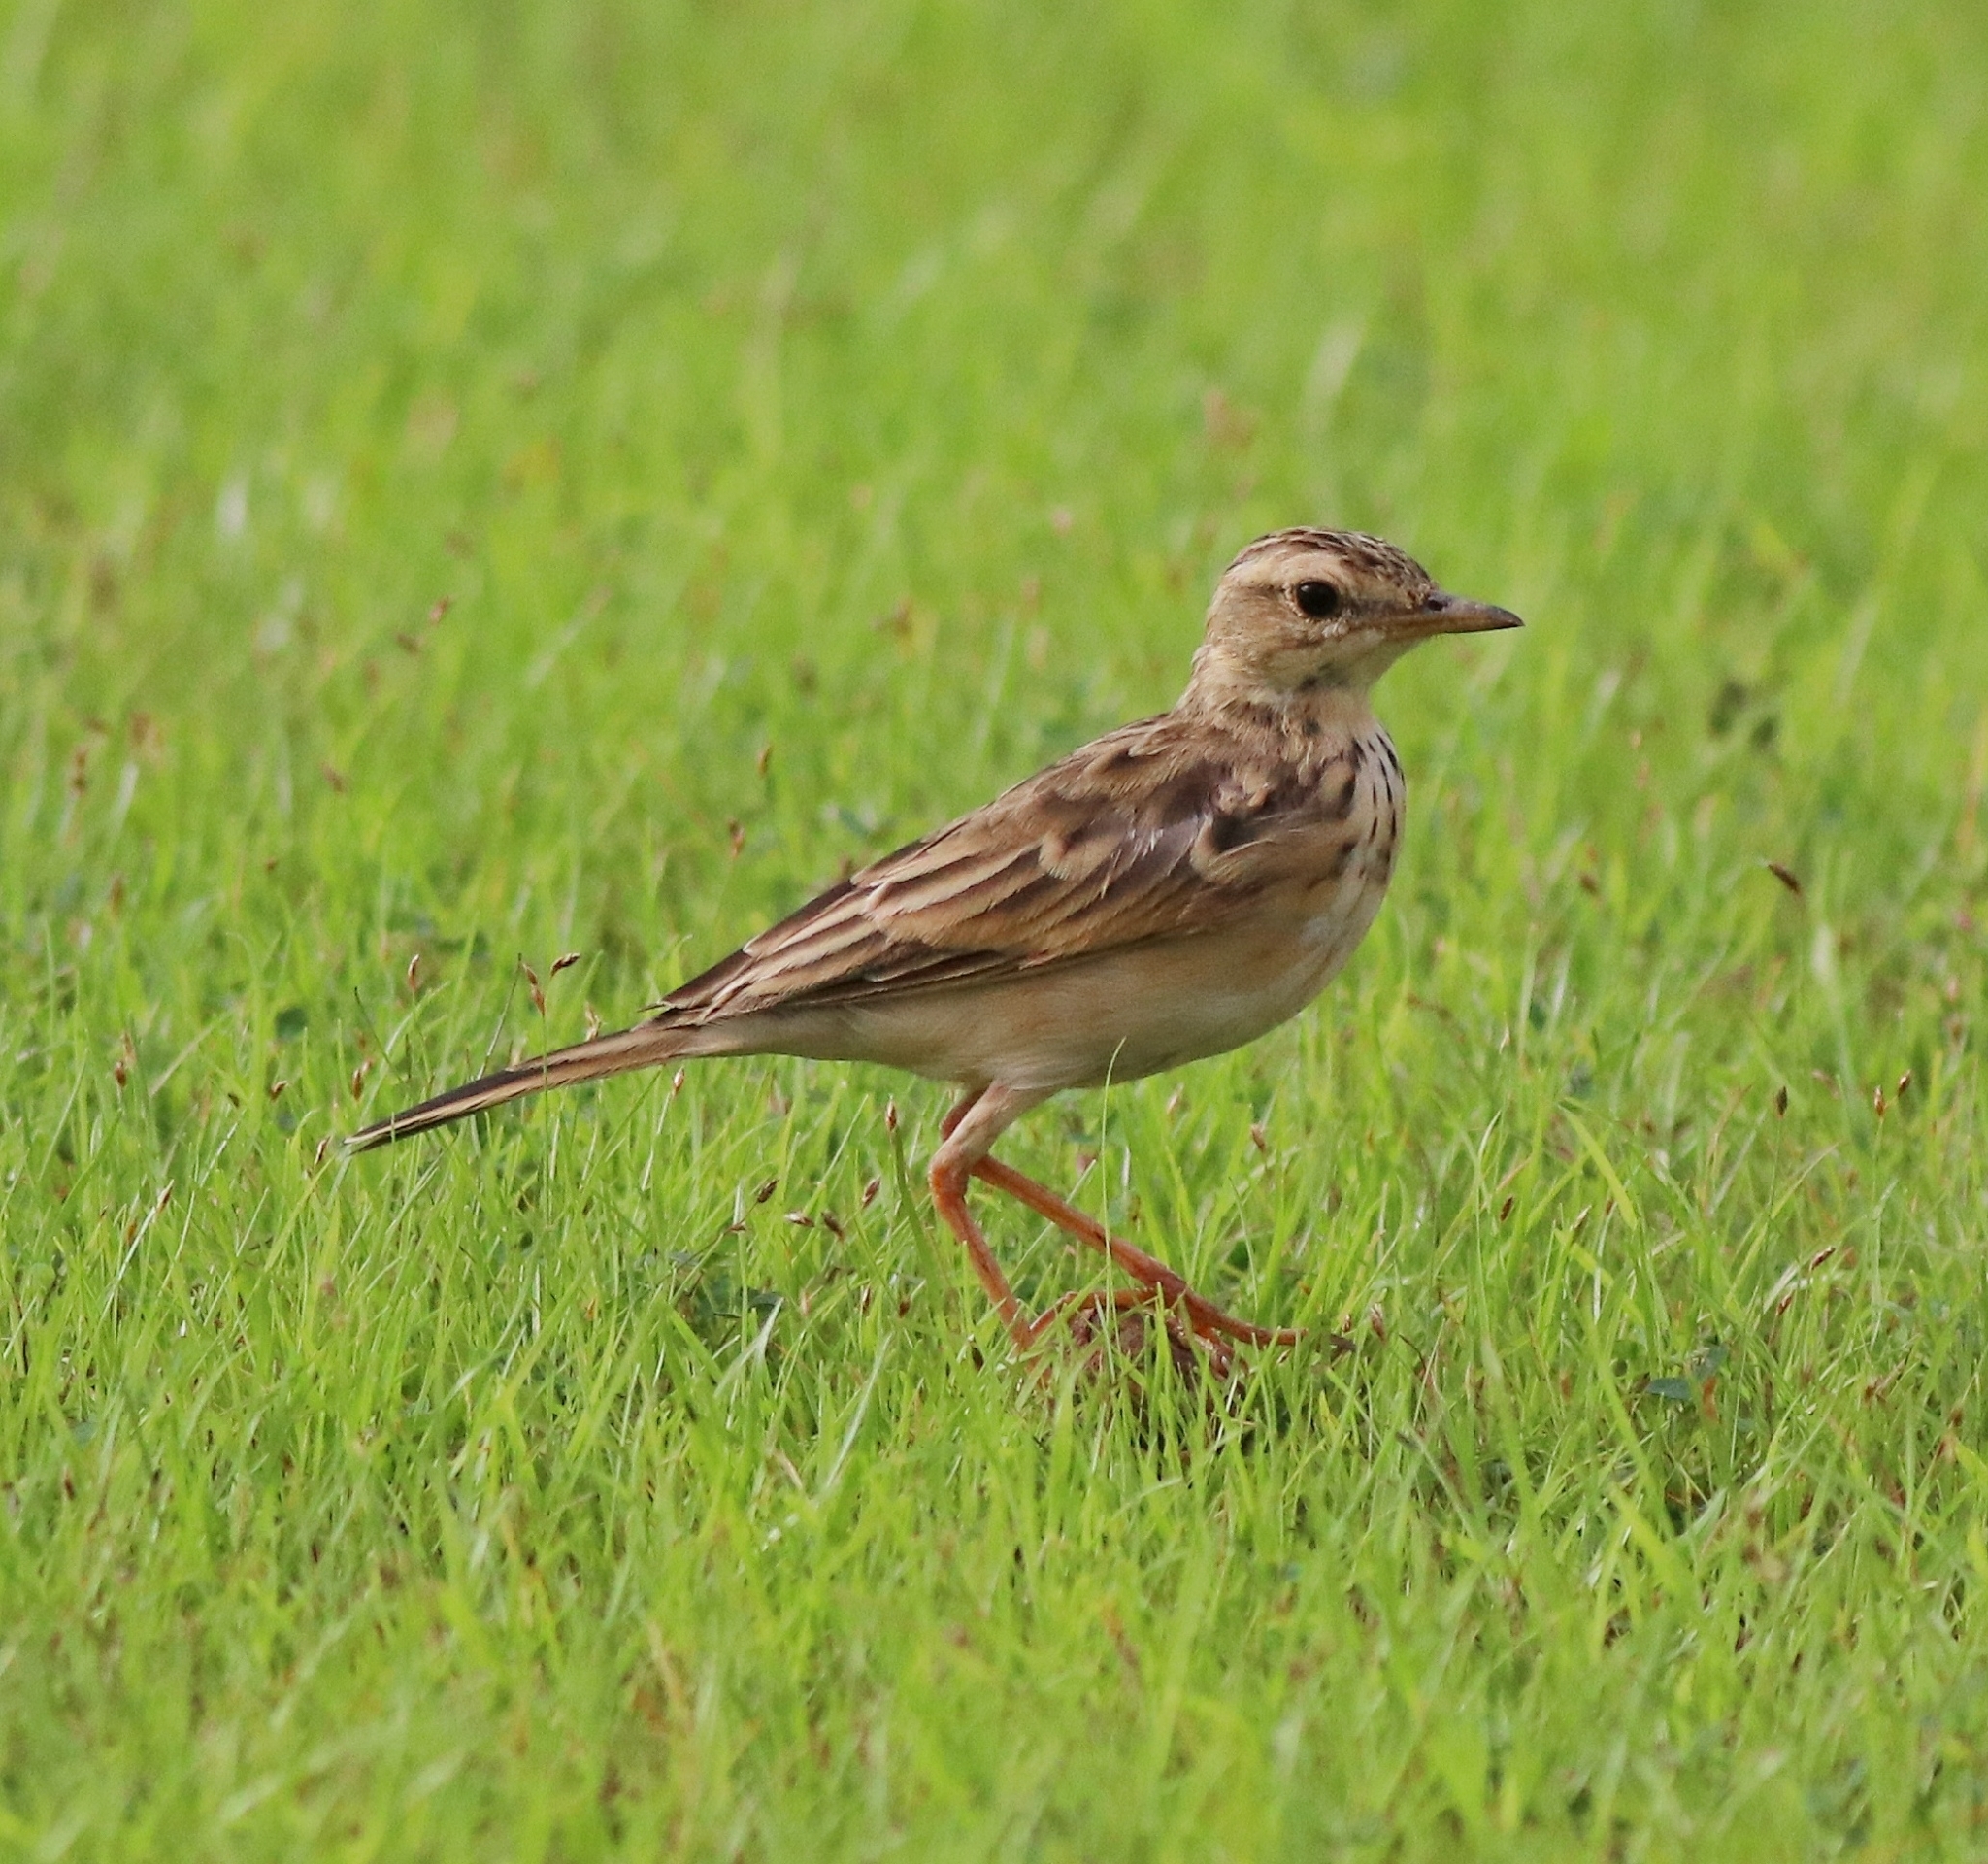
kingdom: Animalia
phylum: Chordata
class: Aves
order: Passeriformes
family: Motacillidae
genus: Anthus
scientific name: Anthus rufulus
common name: Paddyfield pipit
